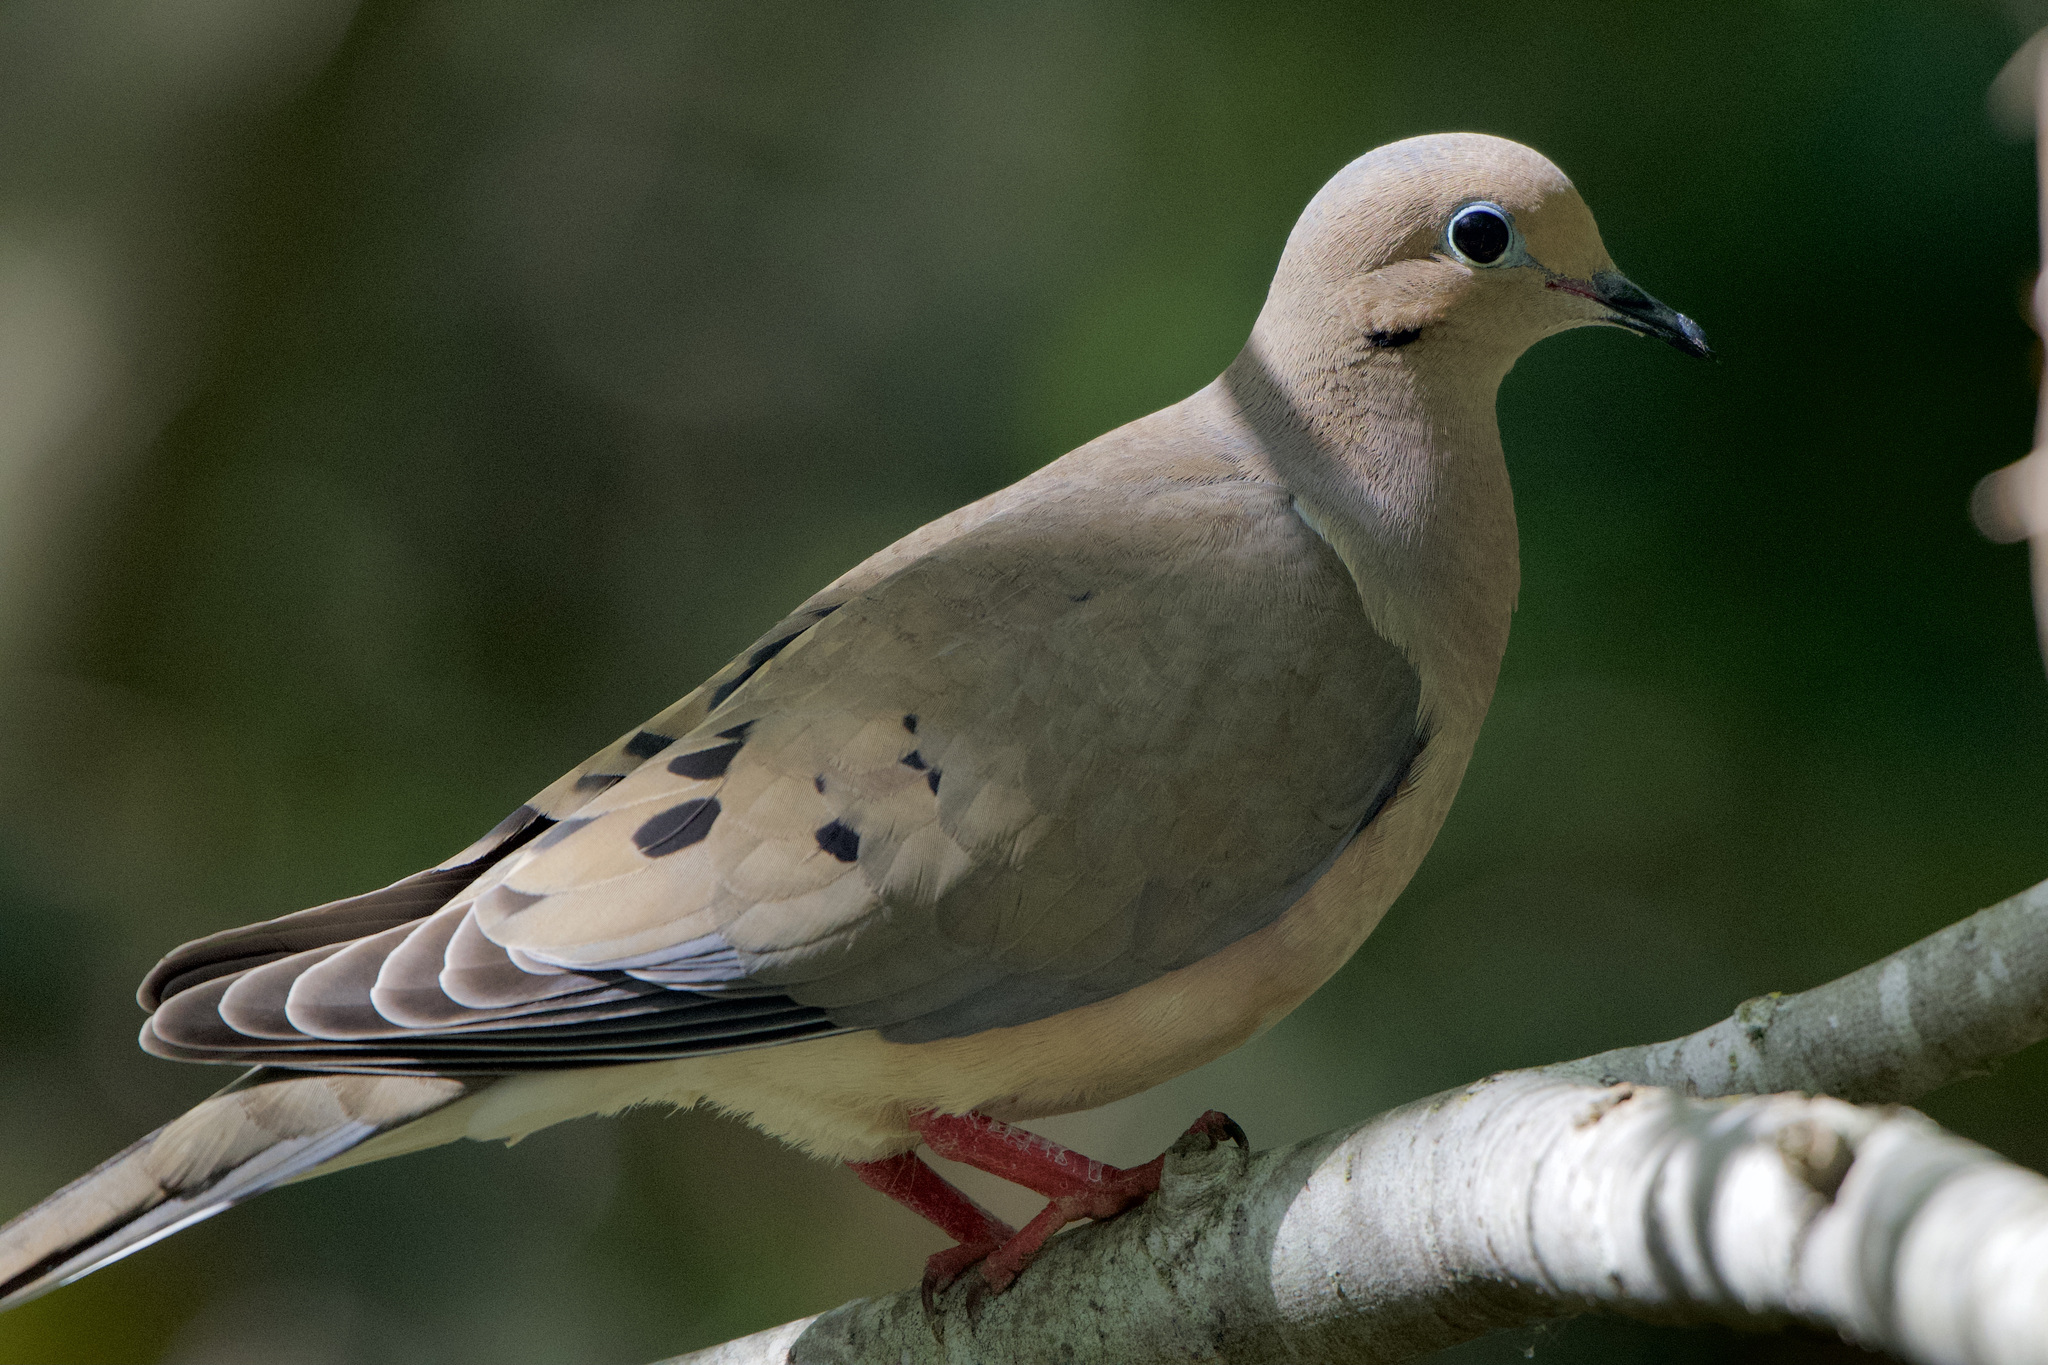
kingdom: Animalia
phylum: Chordata
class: Aves
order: Columbiformes
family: Columbidae
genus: Zenaida
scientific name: Zenaida macroura
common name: Mourning dove
